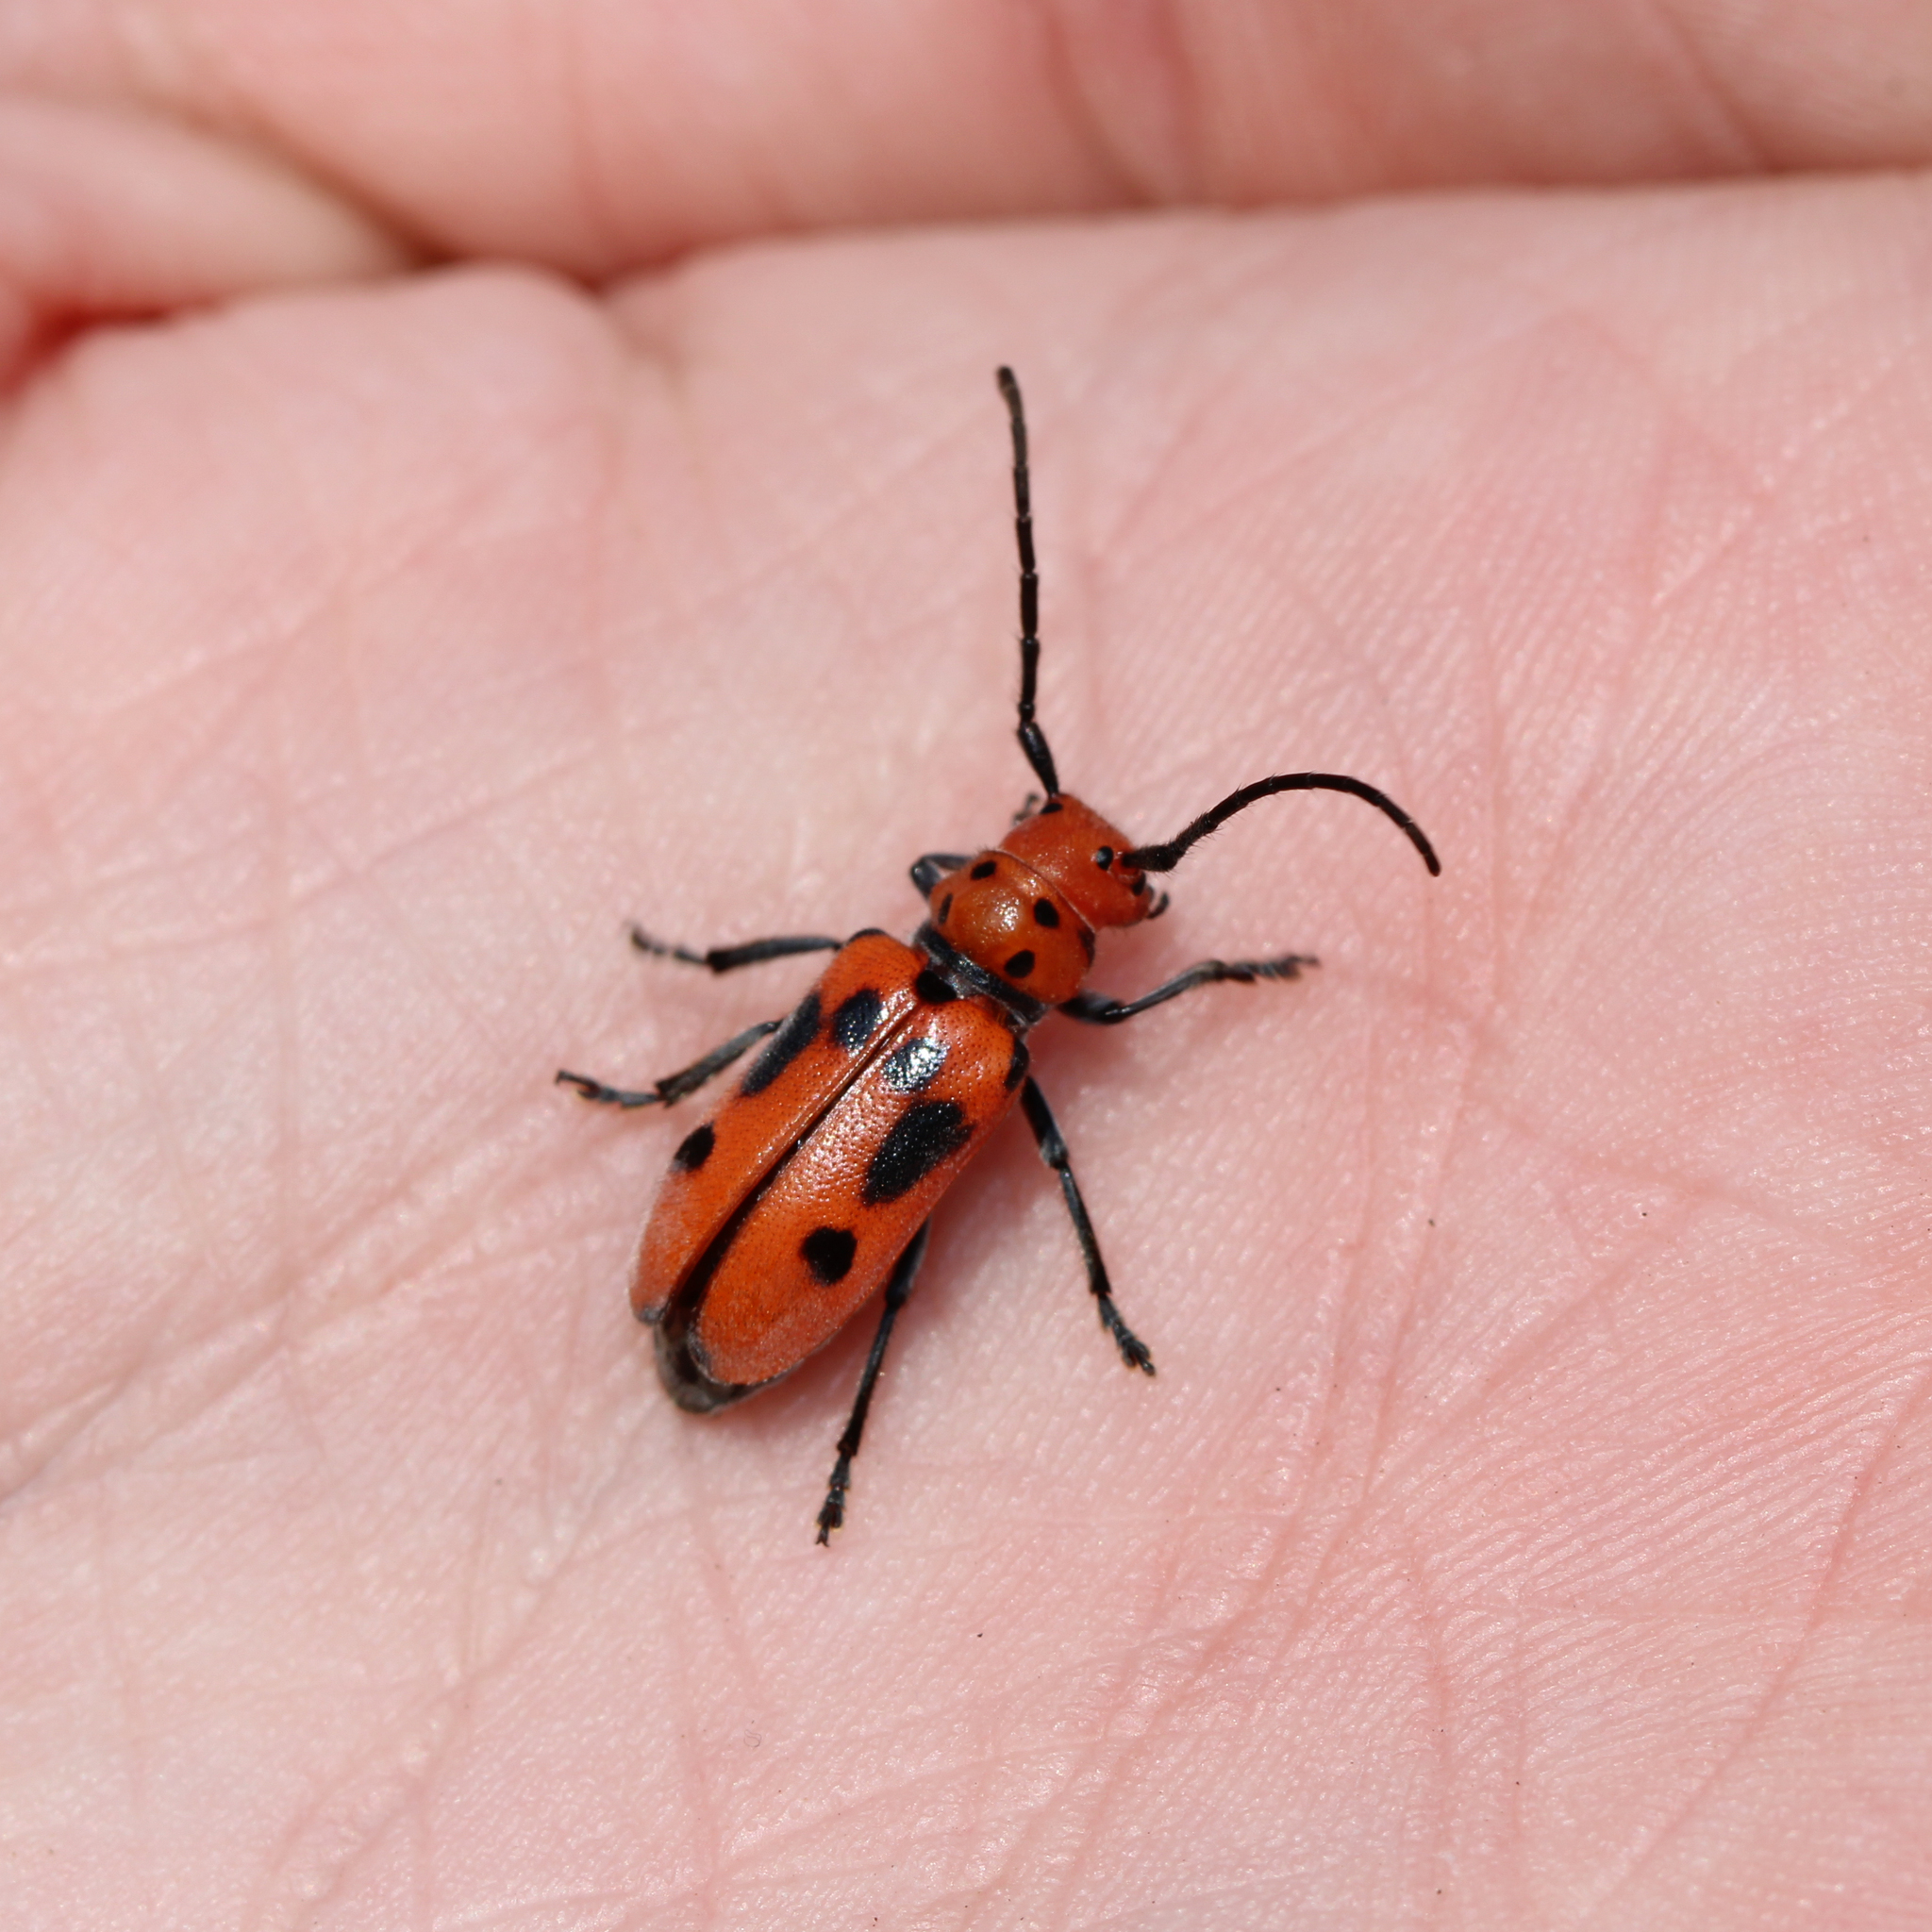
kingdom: Animalia
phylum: Arthropoda
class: Insecta
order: Coleoptera
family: Cerambycidae
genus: Tetraopes
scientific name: Tetraopes tetrophthalmus
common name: Red milkweed beetle
